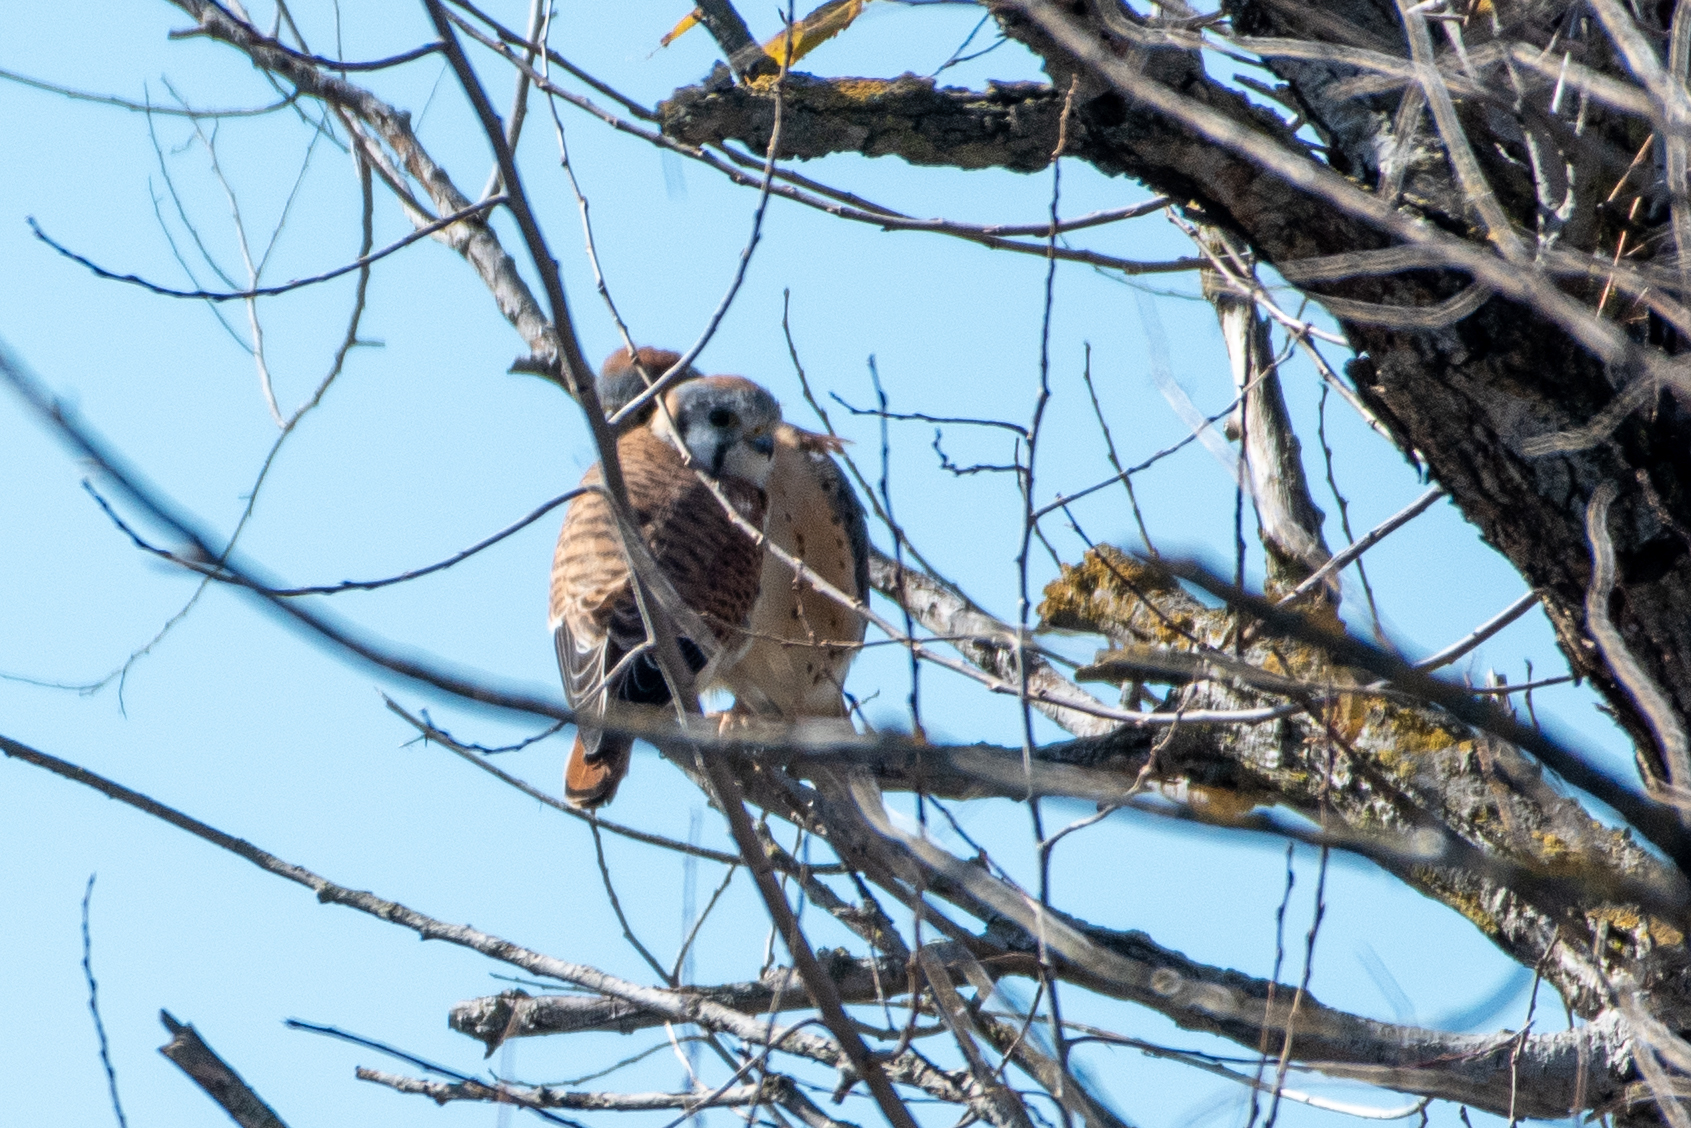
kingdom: Animalia
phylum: Chordata
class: Aves
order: Falconiformes
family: Falconidae
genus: Falco
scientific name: Falco sparverius
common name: American kestrel
